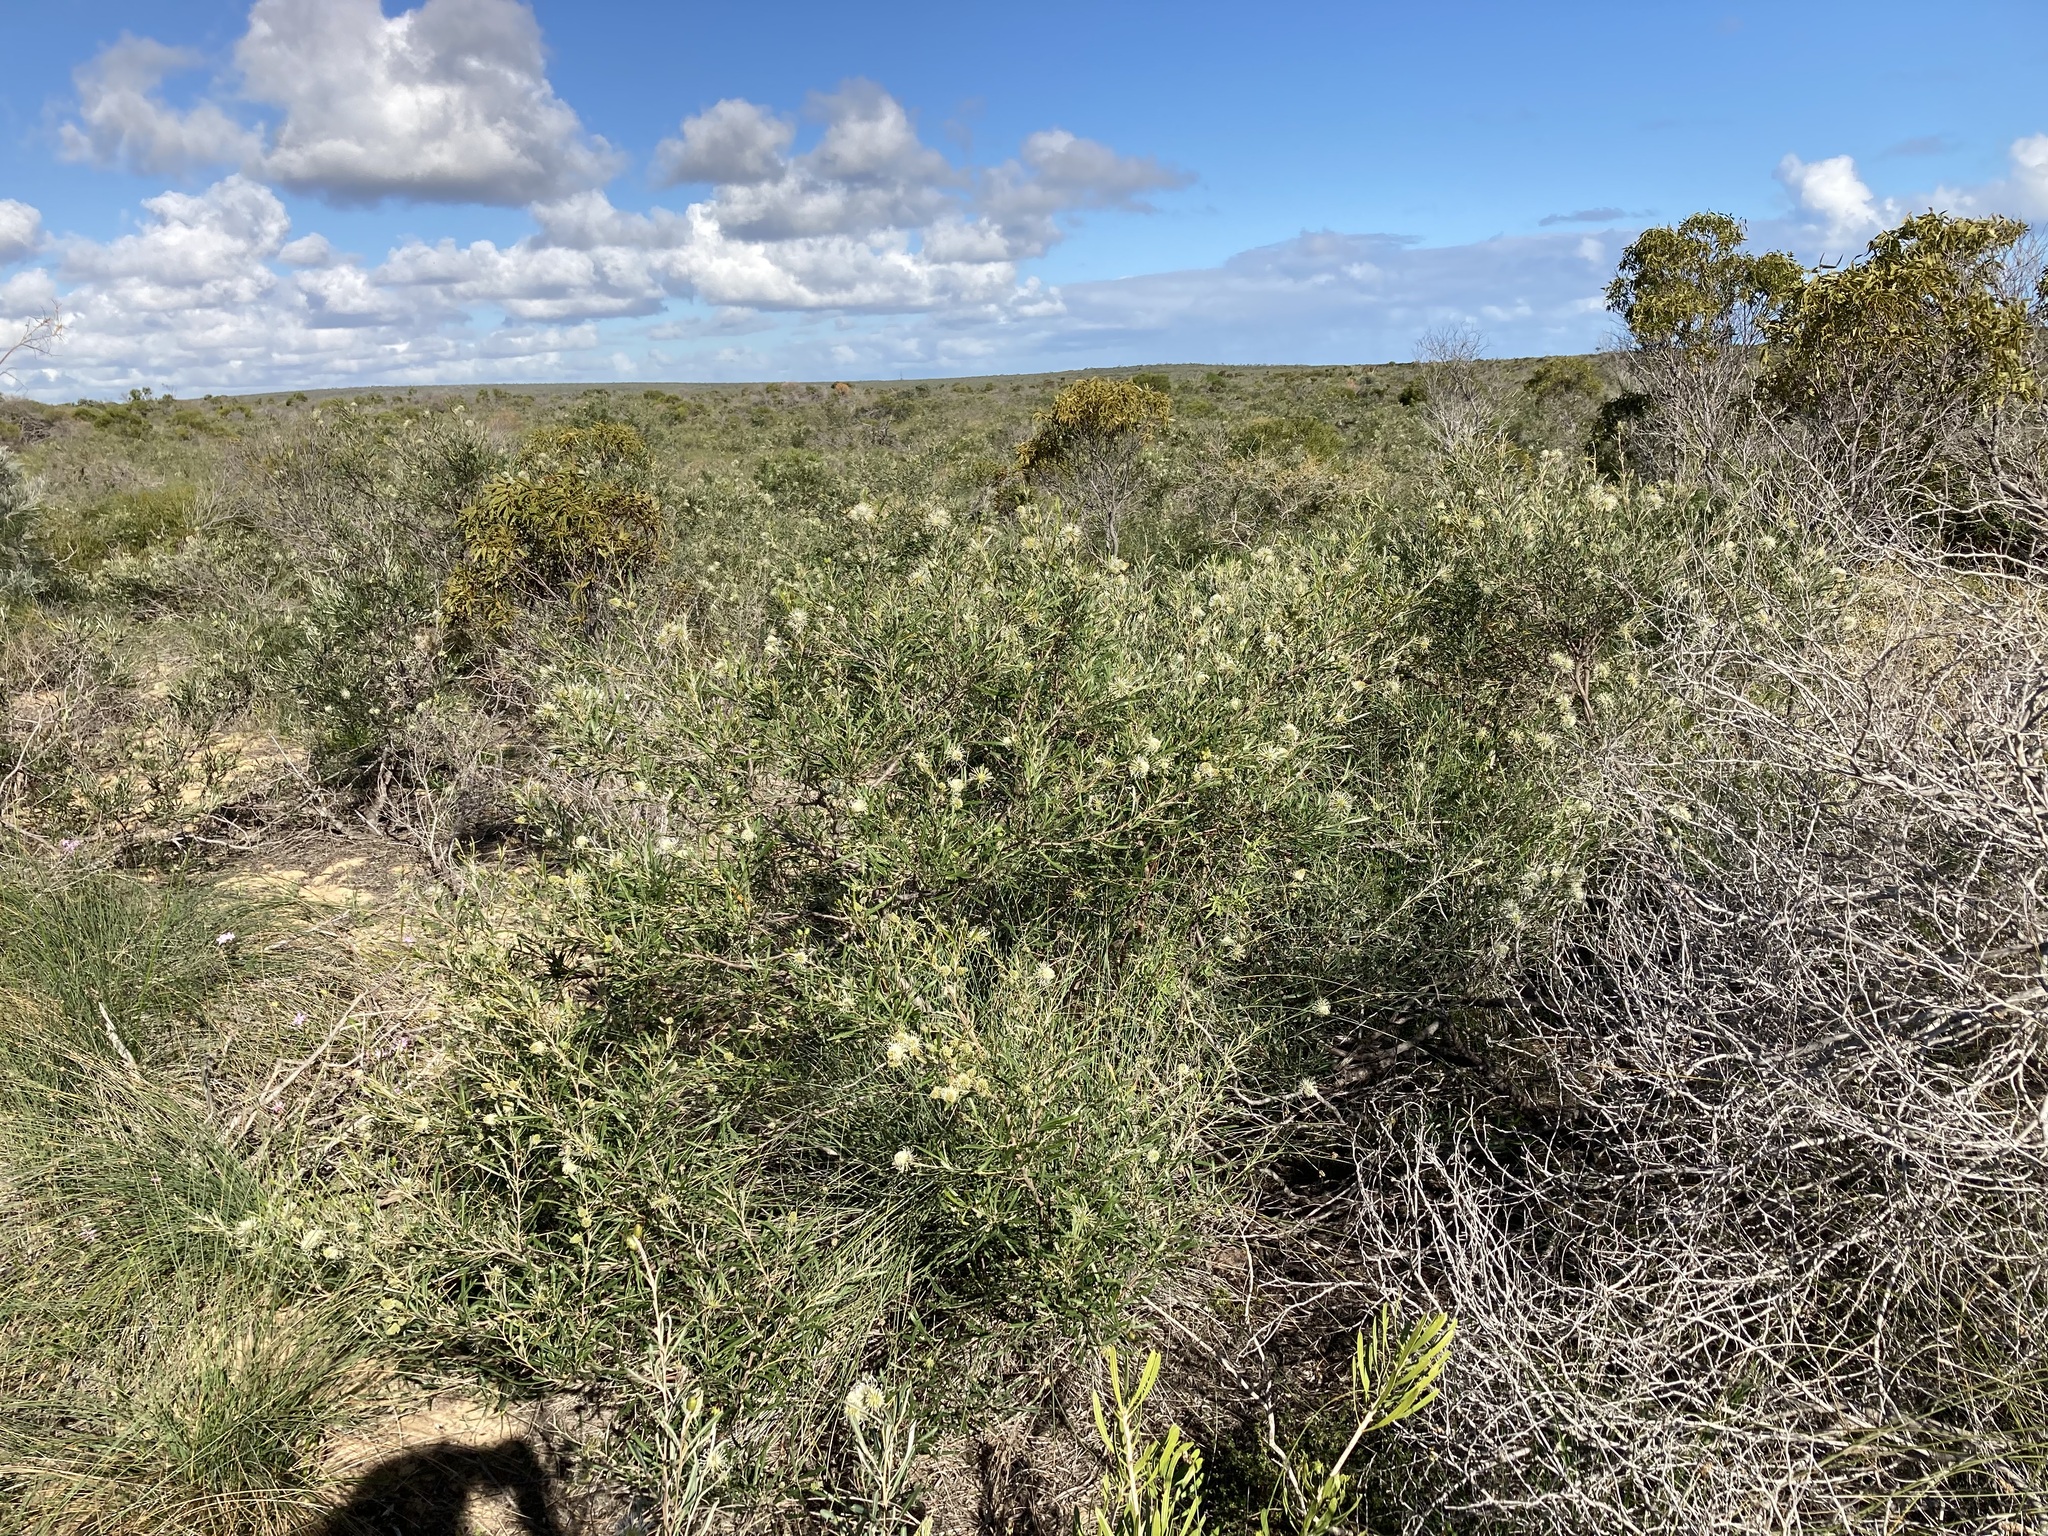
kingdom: Plantae
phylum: Tracheophyta
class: Magnoliopsida
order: Proteales
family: Proteaceae
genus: Grevillea
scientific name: Grevillea commutata
